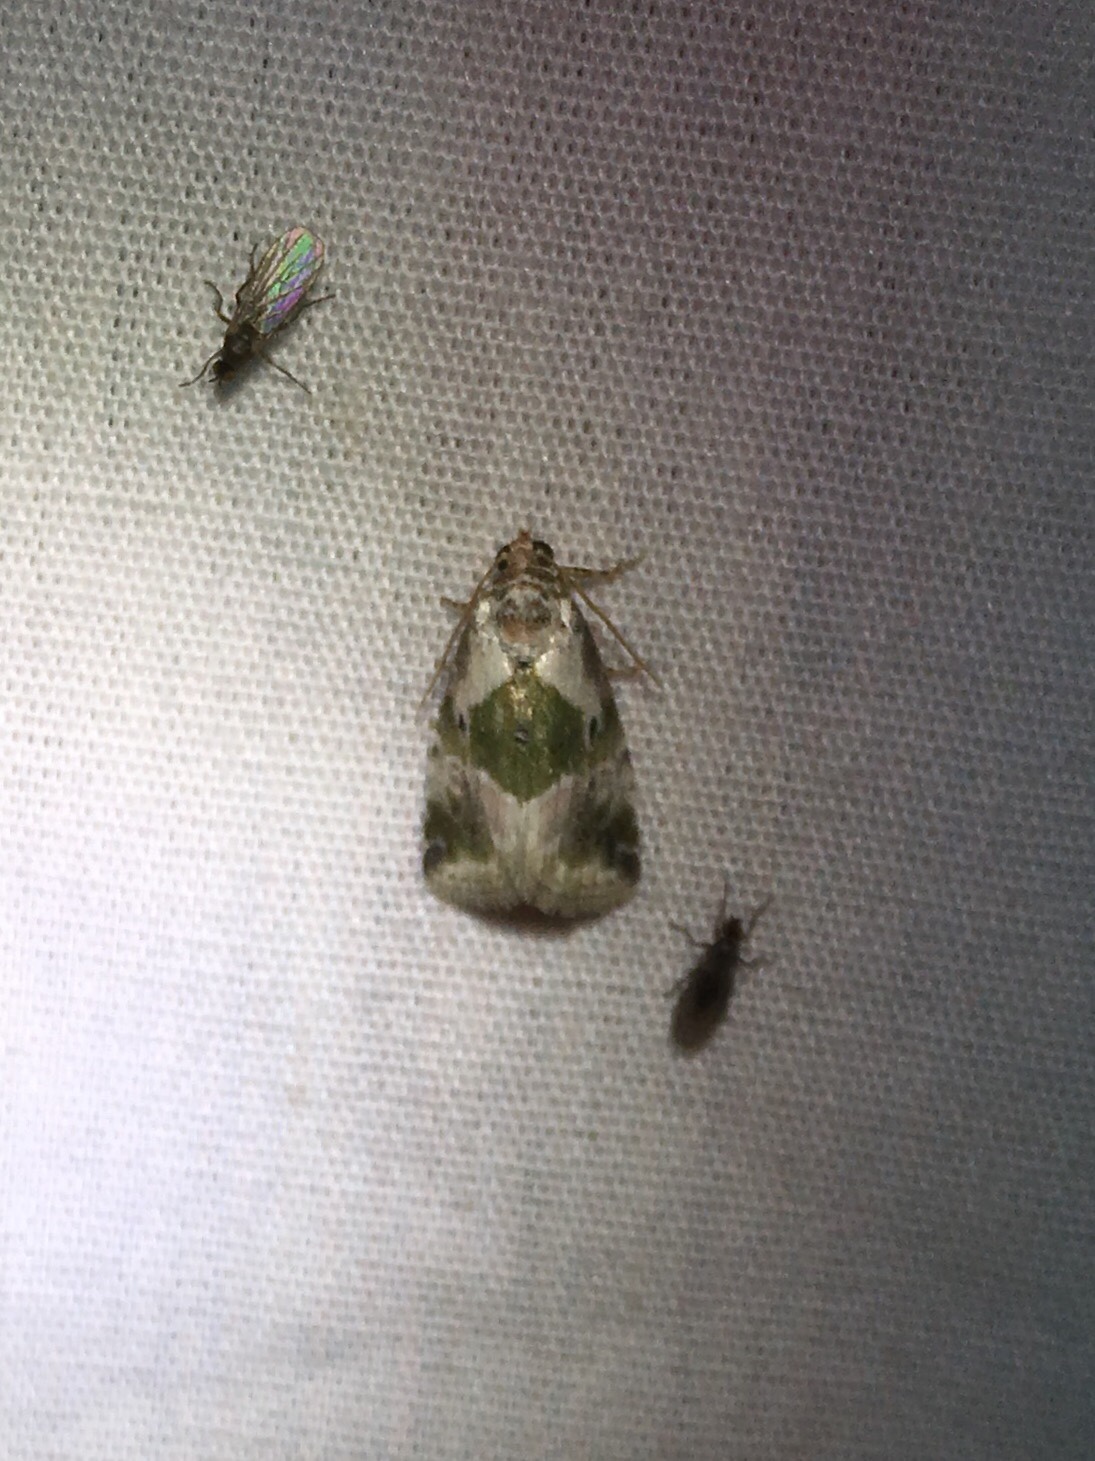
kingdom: Animalia
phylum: Arthropoda
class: Insecta
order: Lepidoptera
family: Noctuidae
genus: Maliattha
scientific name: Maliattha synochitis
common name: Black-dotted glyph
